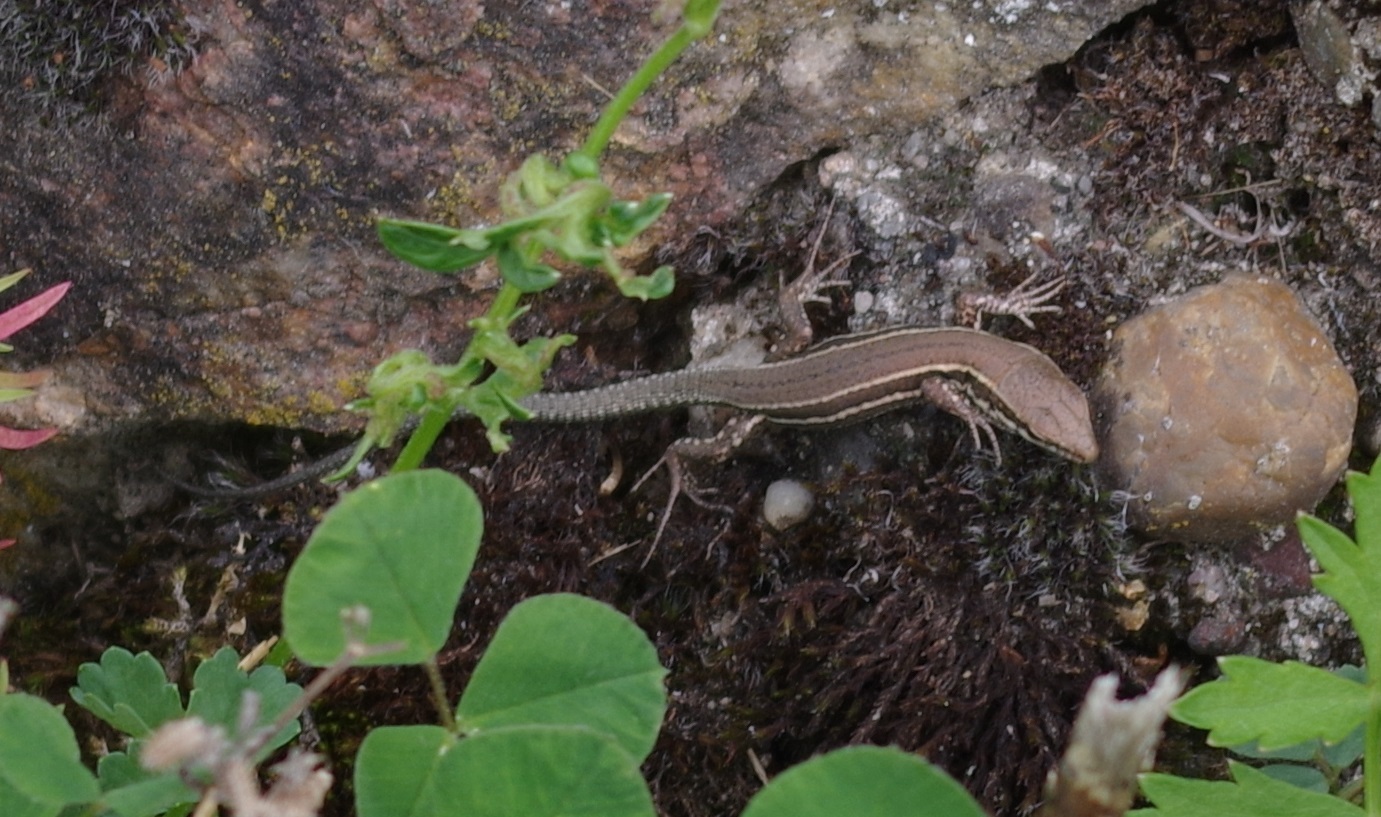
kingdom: Animalia
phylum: Chordata
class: Squamata
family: Lacertidae
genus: Podarcis
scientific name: Podarcis muralis
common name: Common wall lizard
